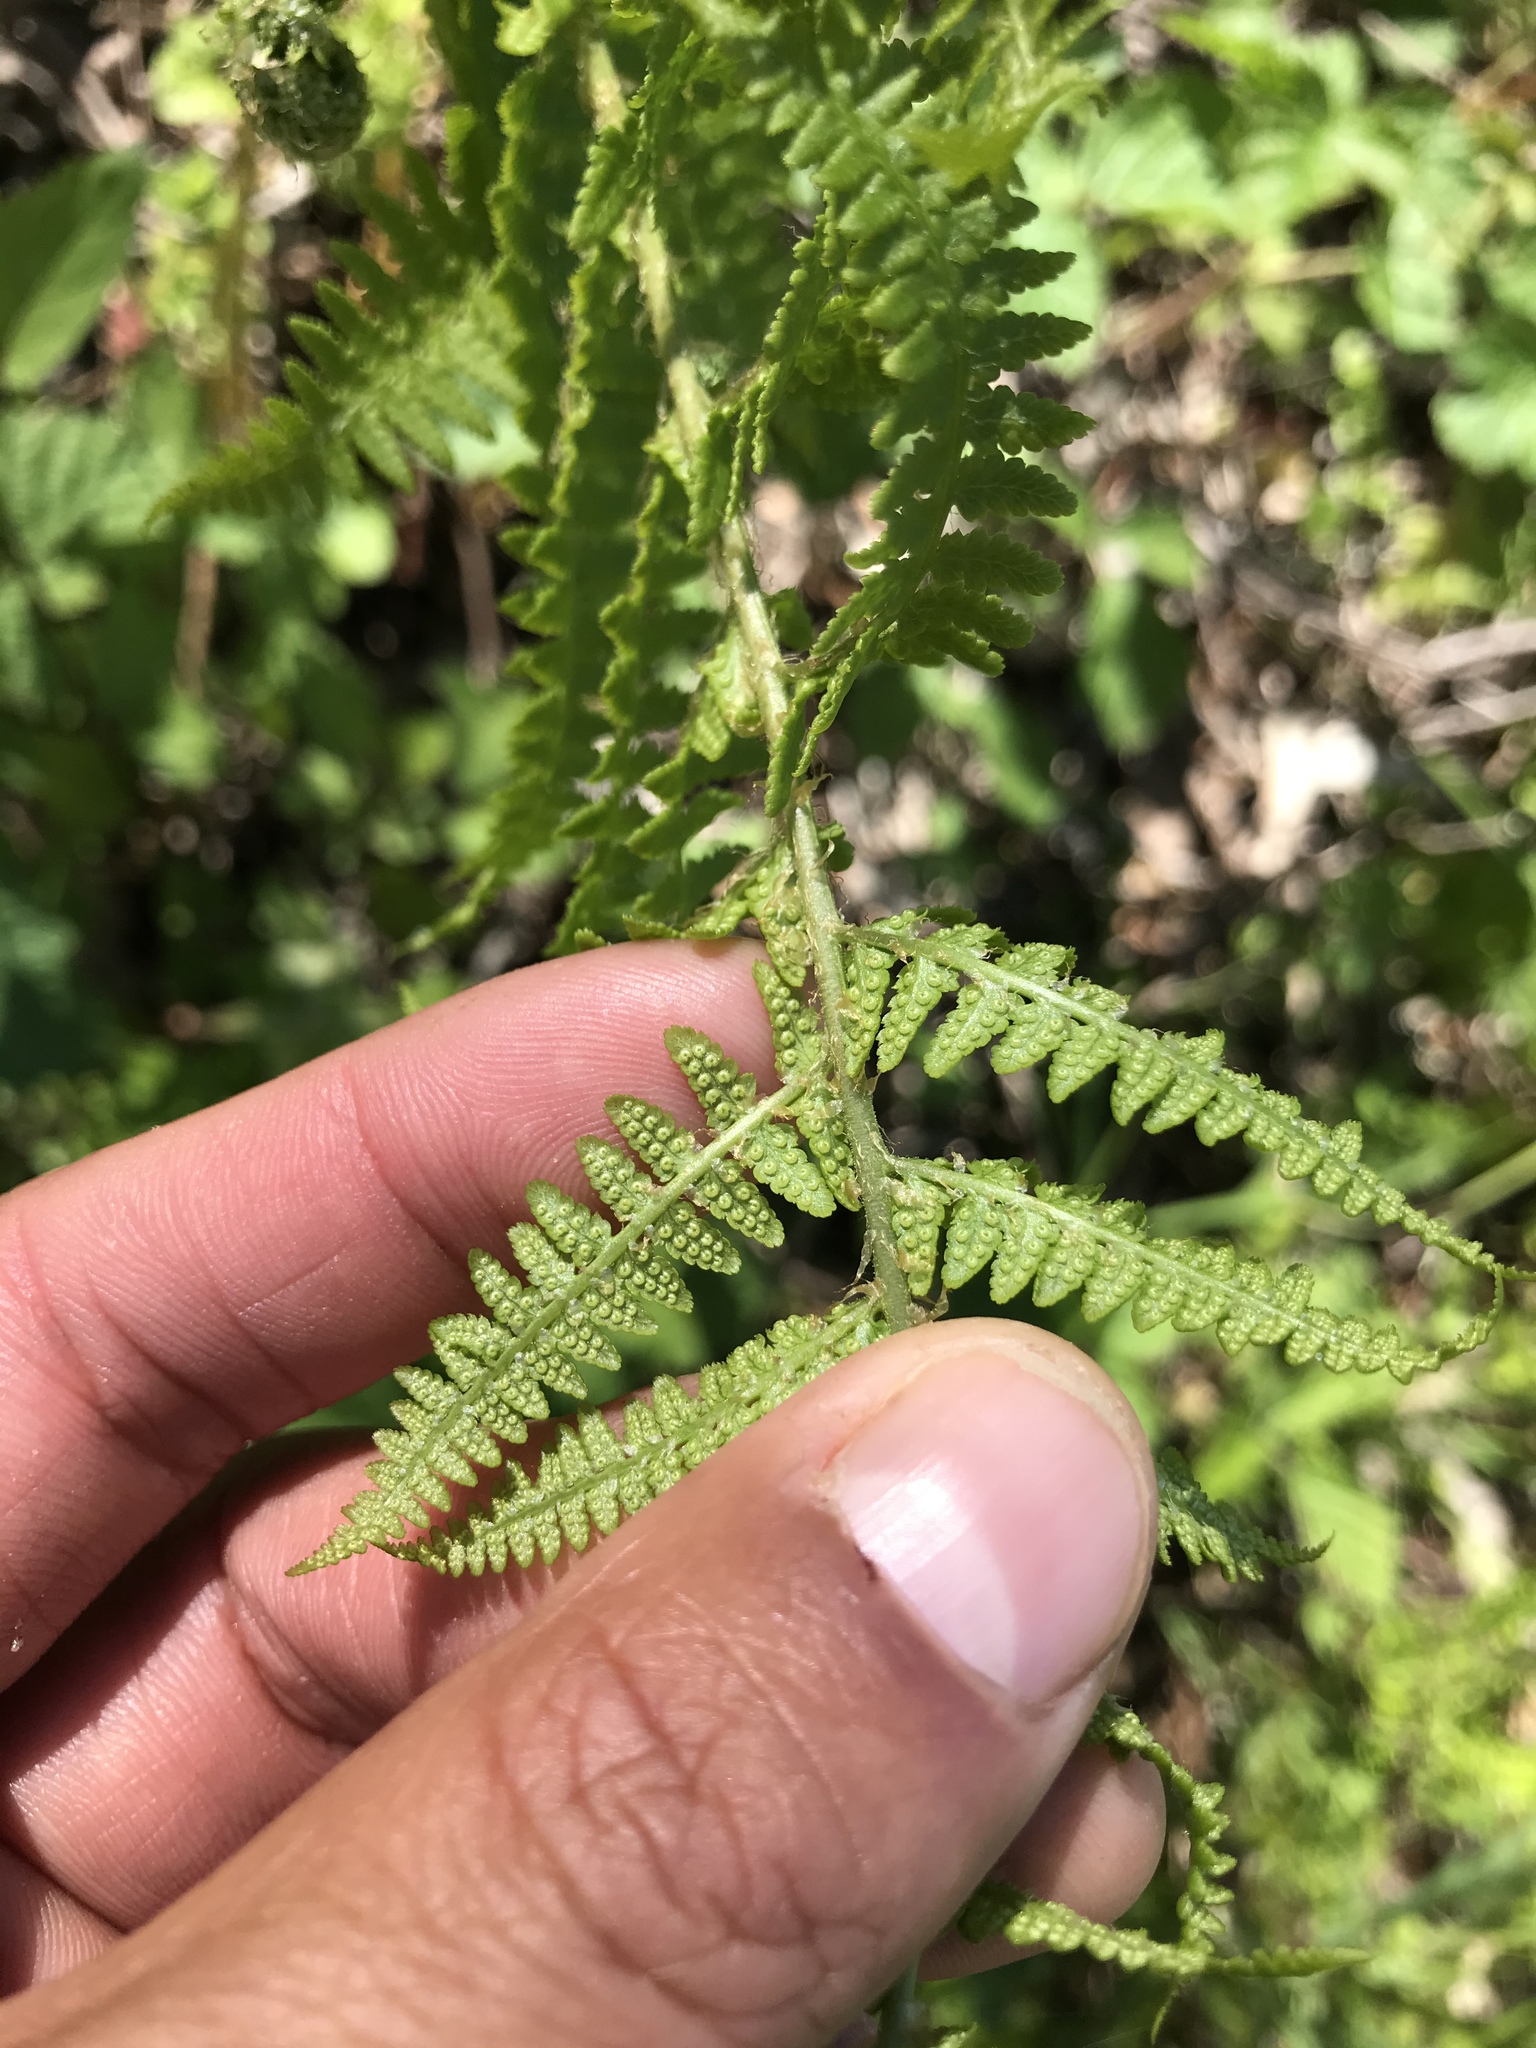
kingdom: Plantae
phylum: Tracheophyta
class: Polypodiopsida
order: Polypodiales
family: Dryopteridaceae
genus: Dryopteris
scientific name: Dryopteris arguta
